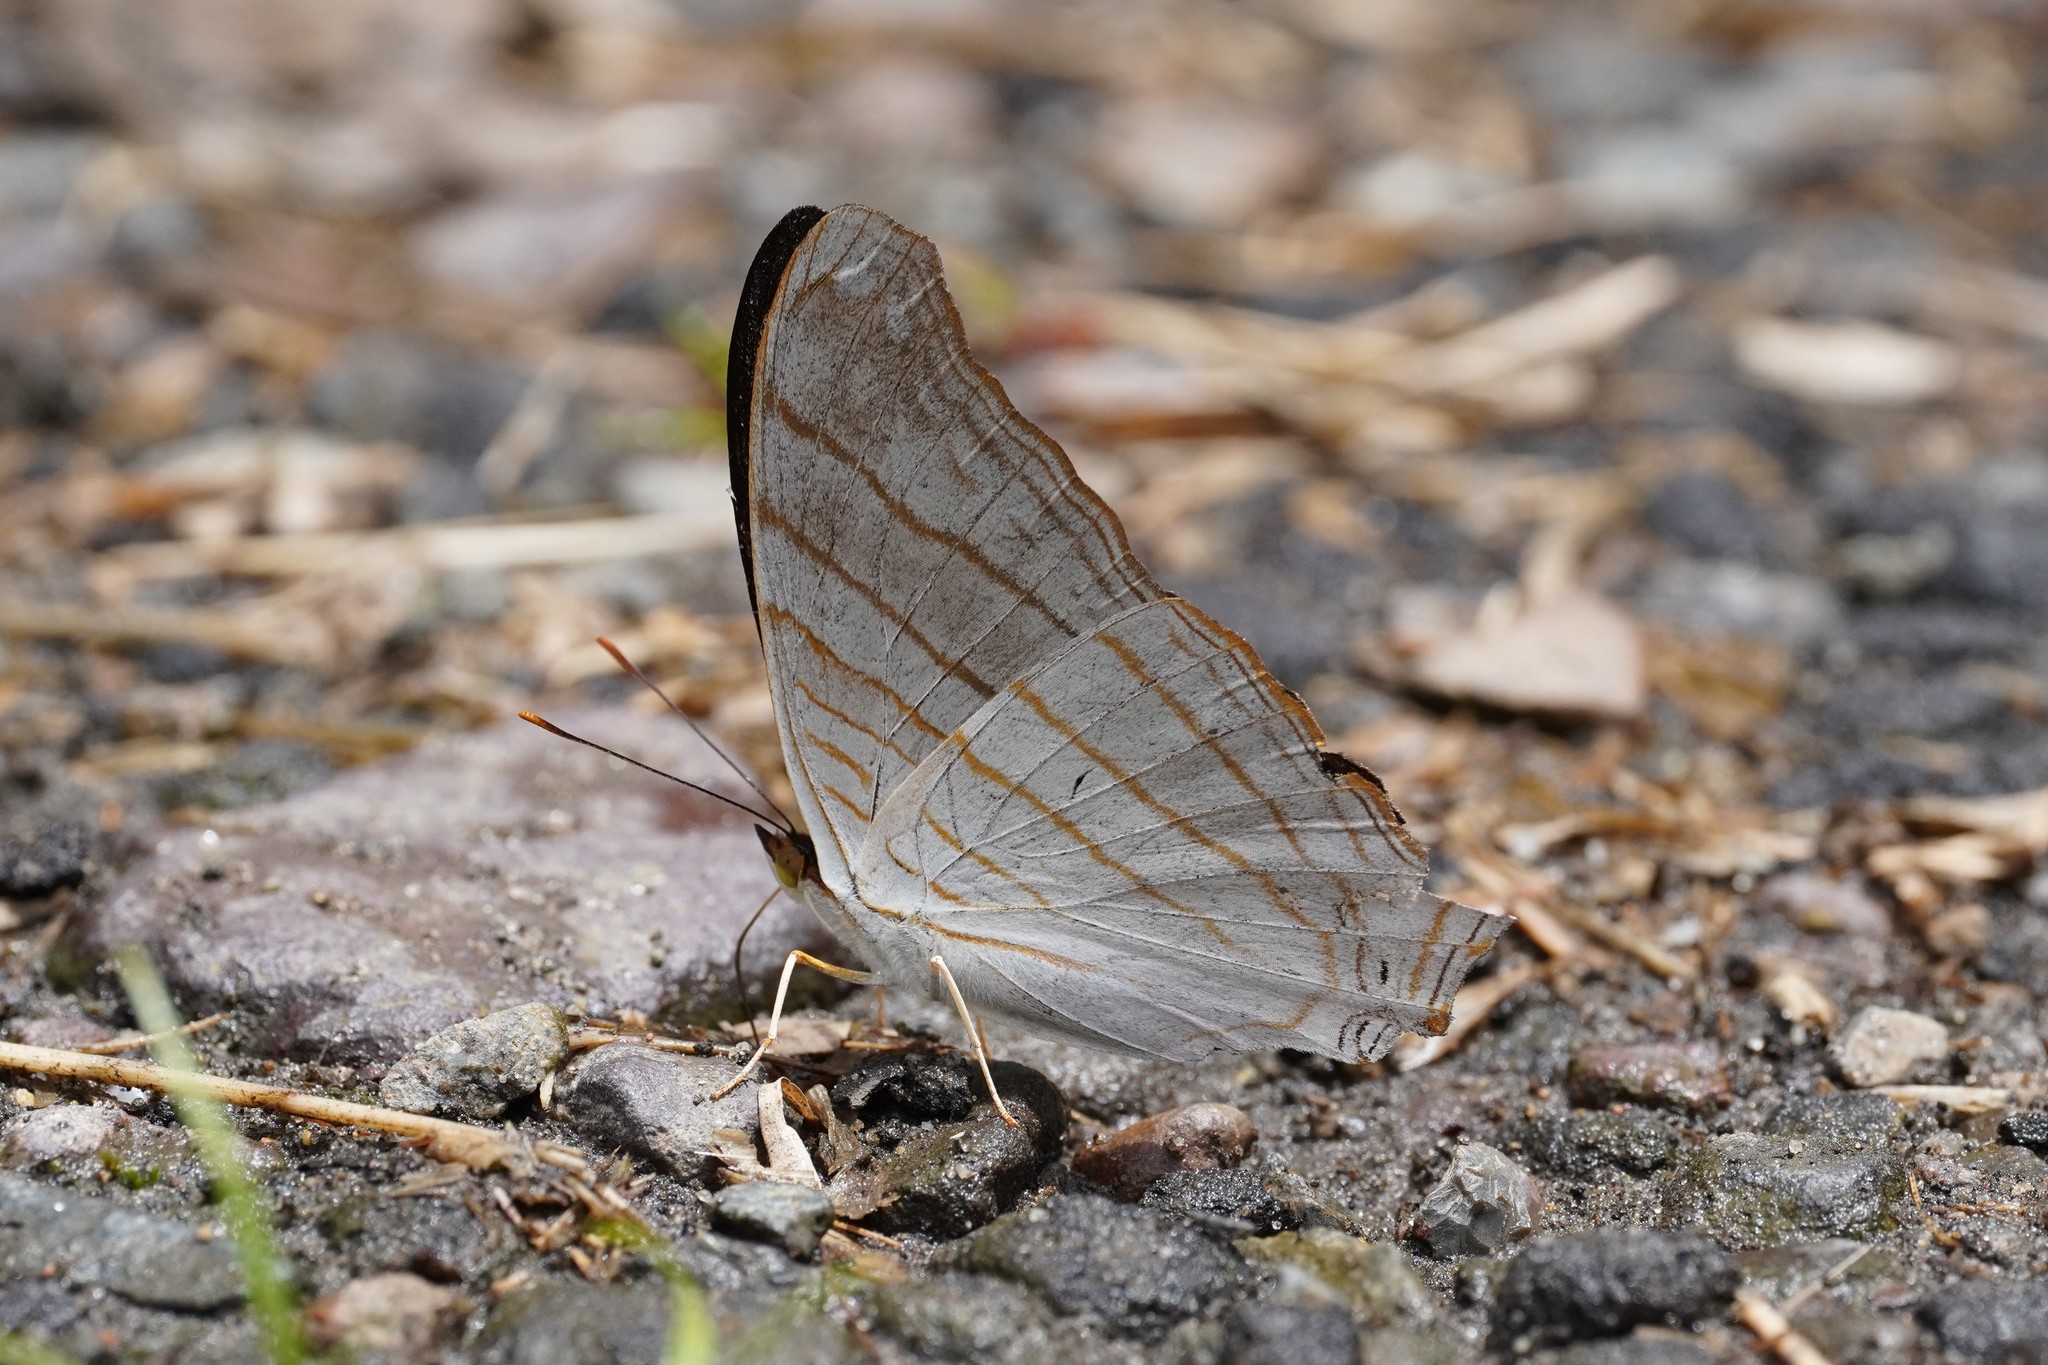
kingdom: Animalia
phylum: Arthropoda
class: Insecta
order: Lepidoptera
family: Nymphalidae
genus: Marpesia
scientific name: Marpesia livius
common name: Livius daggerwing
